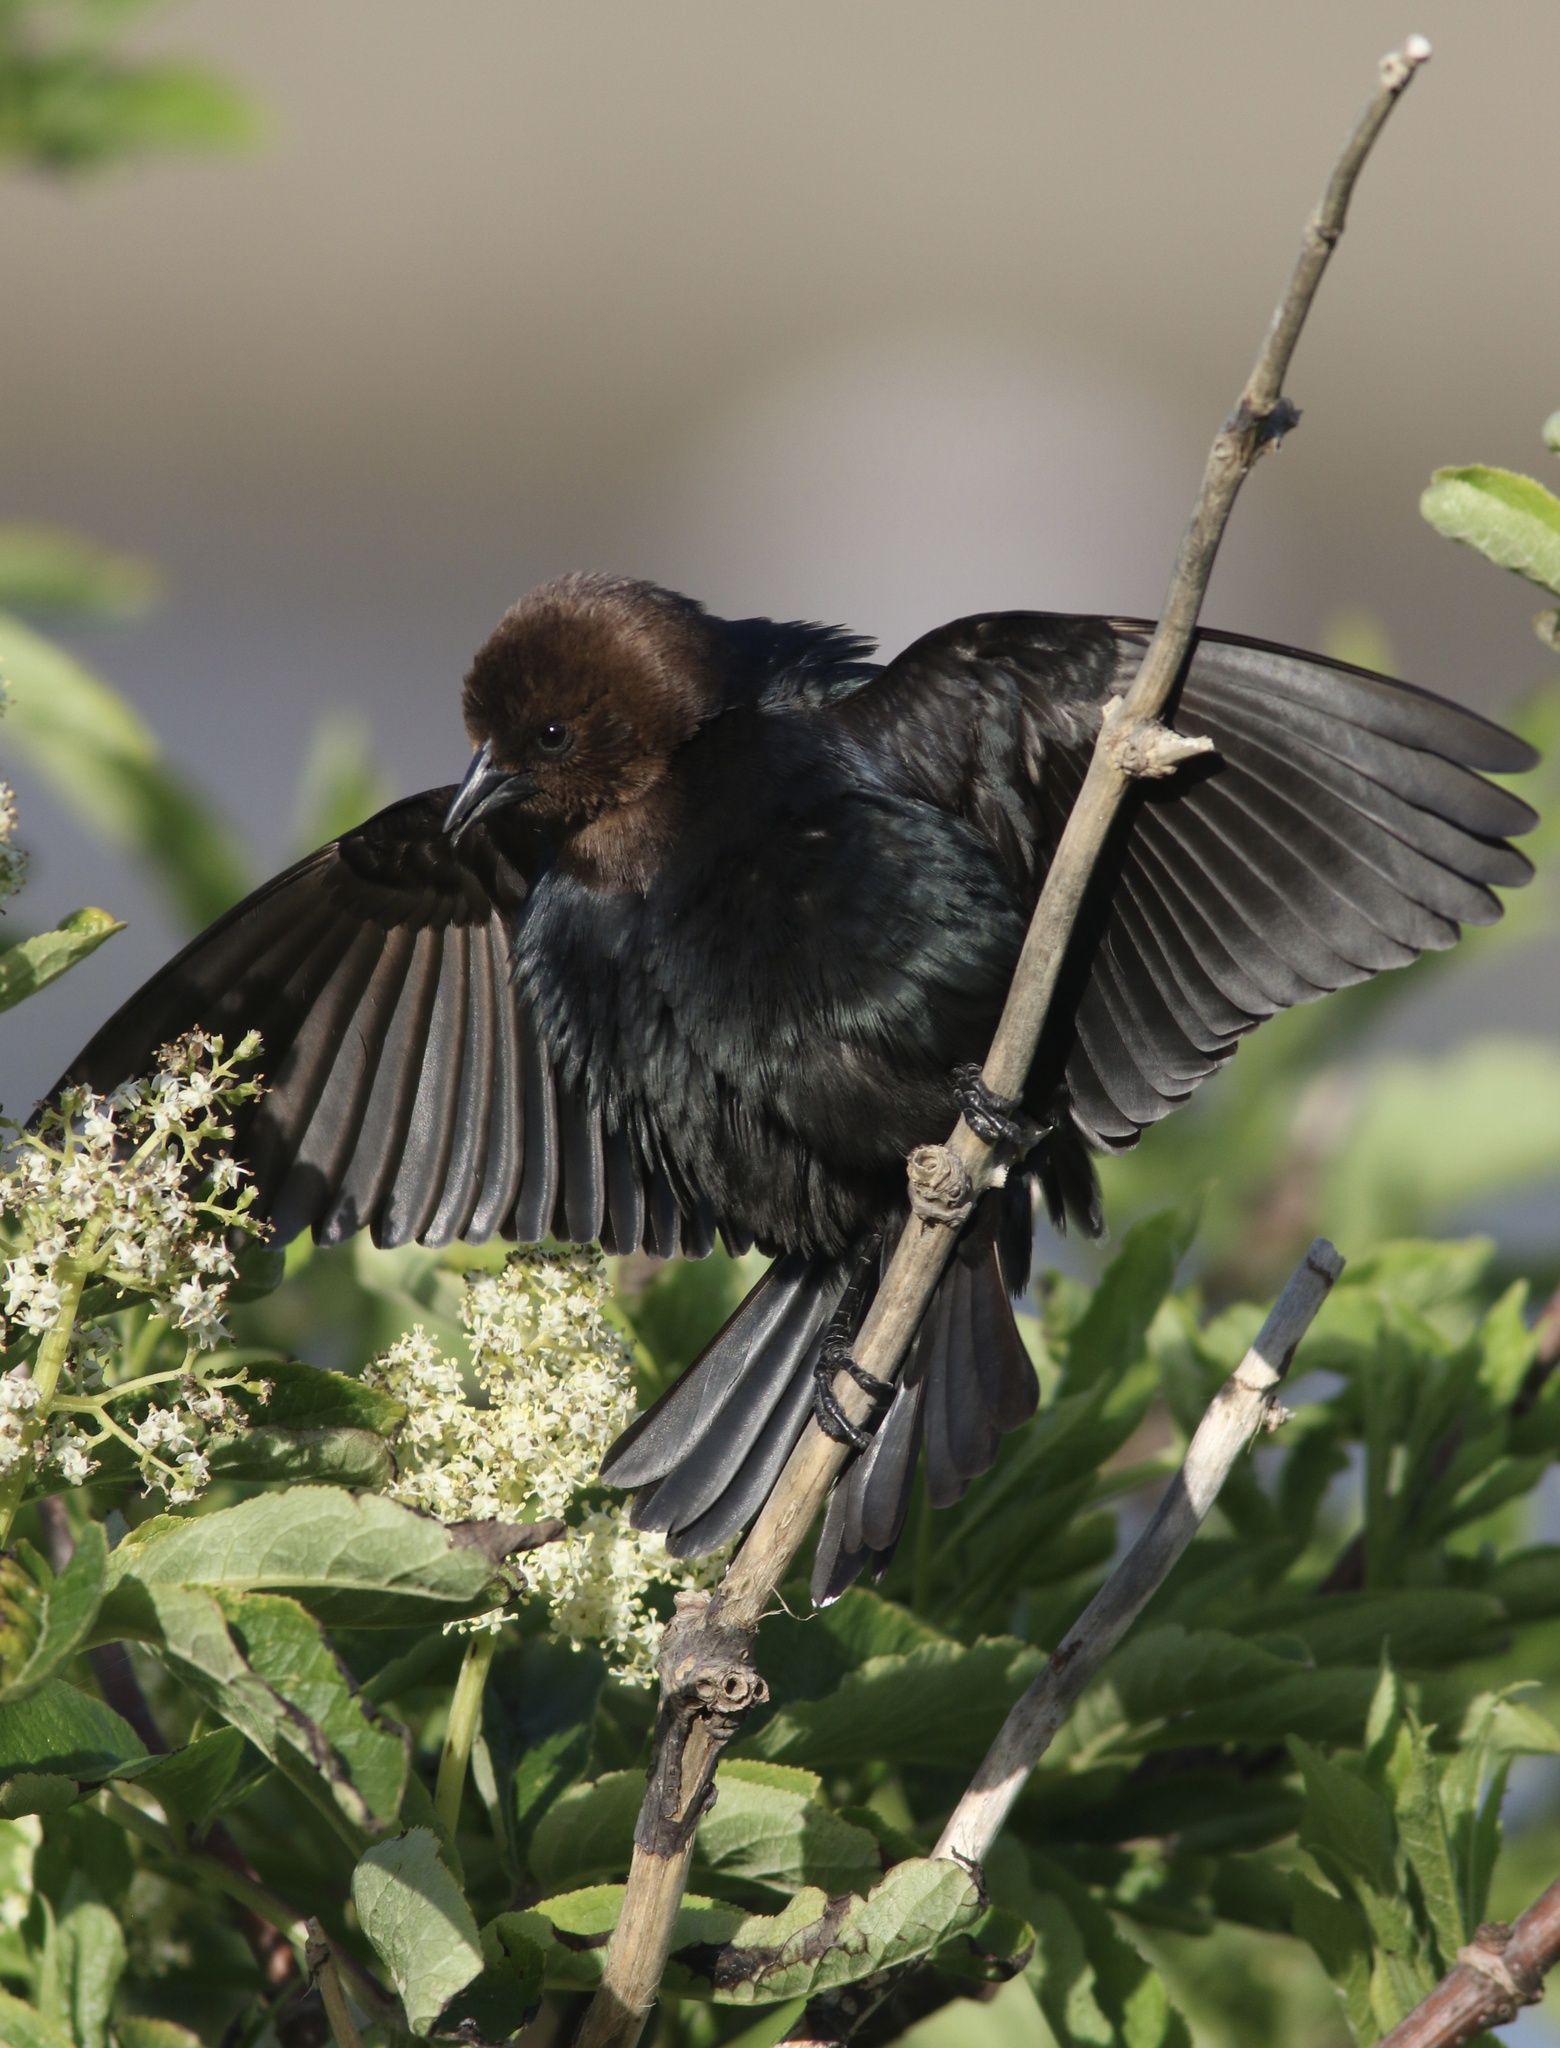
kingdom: Animalia
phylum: Chordata
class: Aves
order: Passeriformes
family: Icteridae
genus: Molothrus
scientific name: Molothrus ater
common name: Brown-headed cowbird
